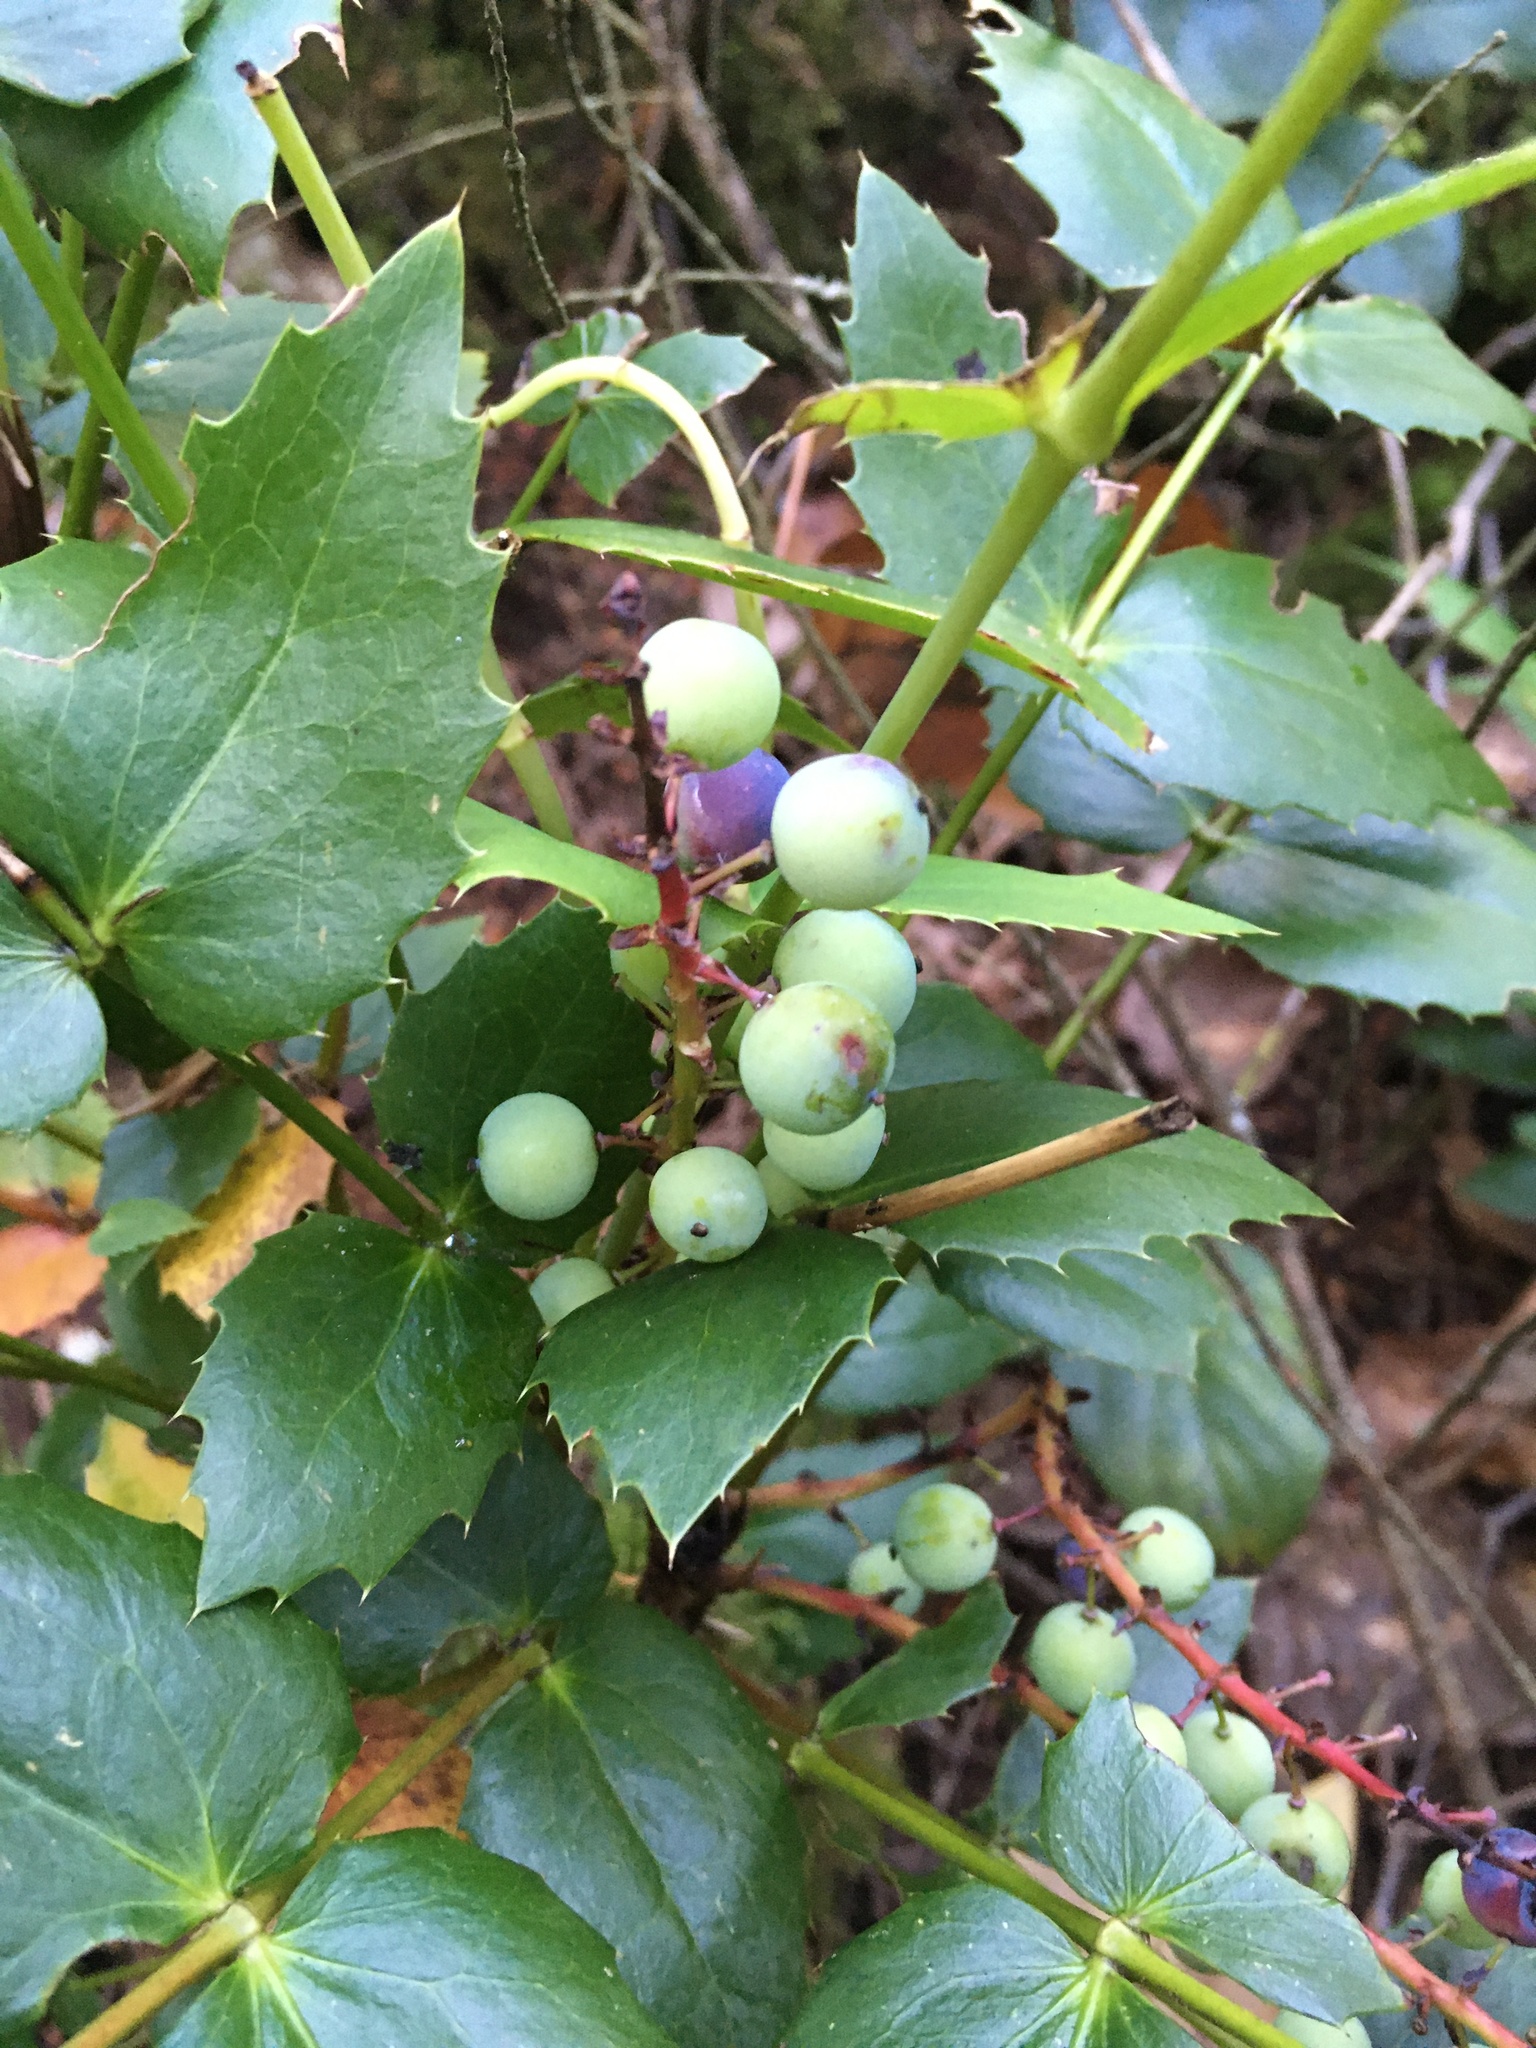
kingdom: Plantae
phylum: Tracheophyta
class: Magnoliopsida
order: Ranunculales
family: Berberidaceae
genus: Mahonia
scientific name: Mahonia nervosa
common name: Cascade oregon-grape
